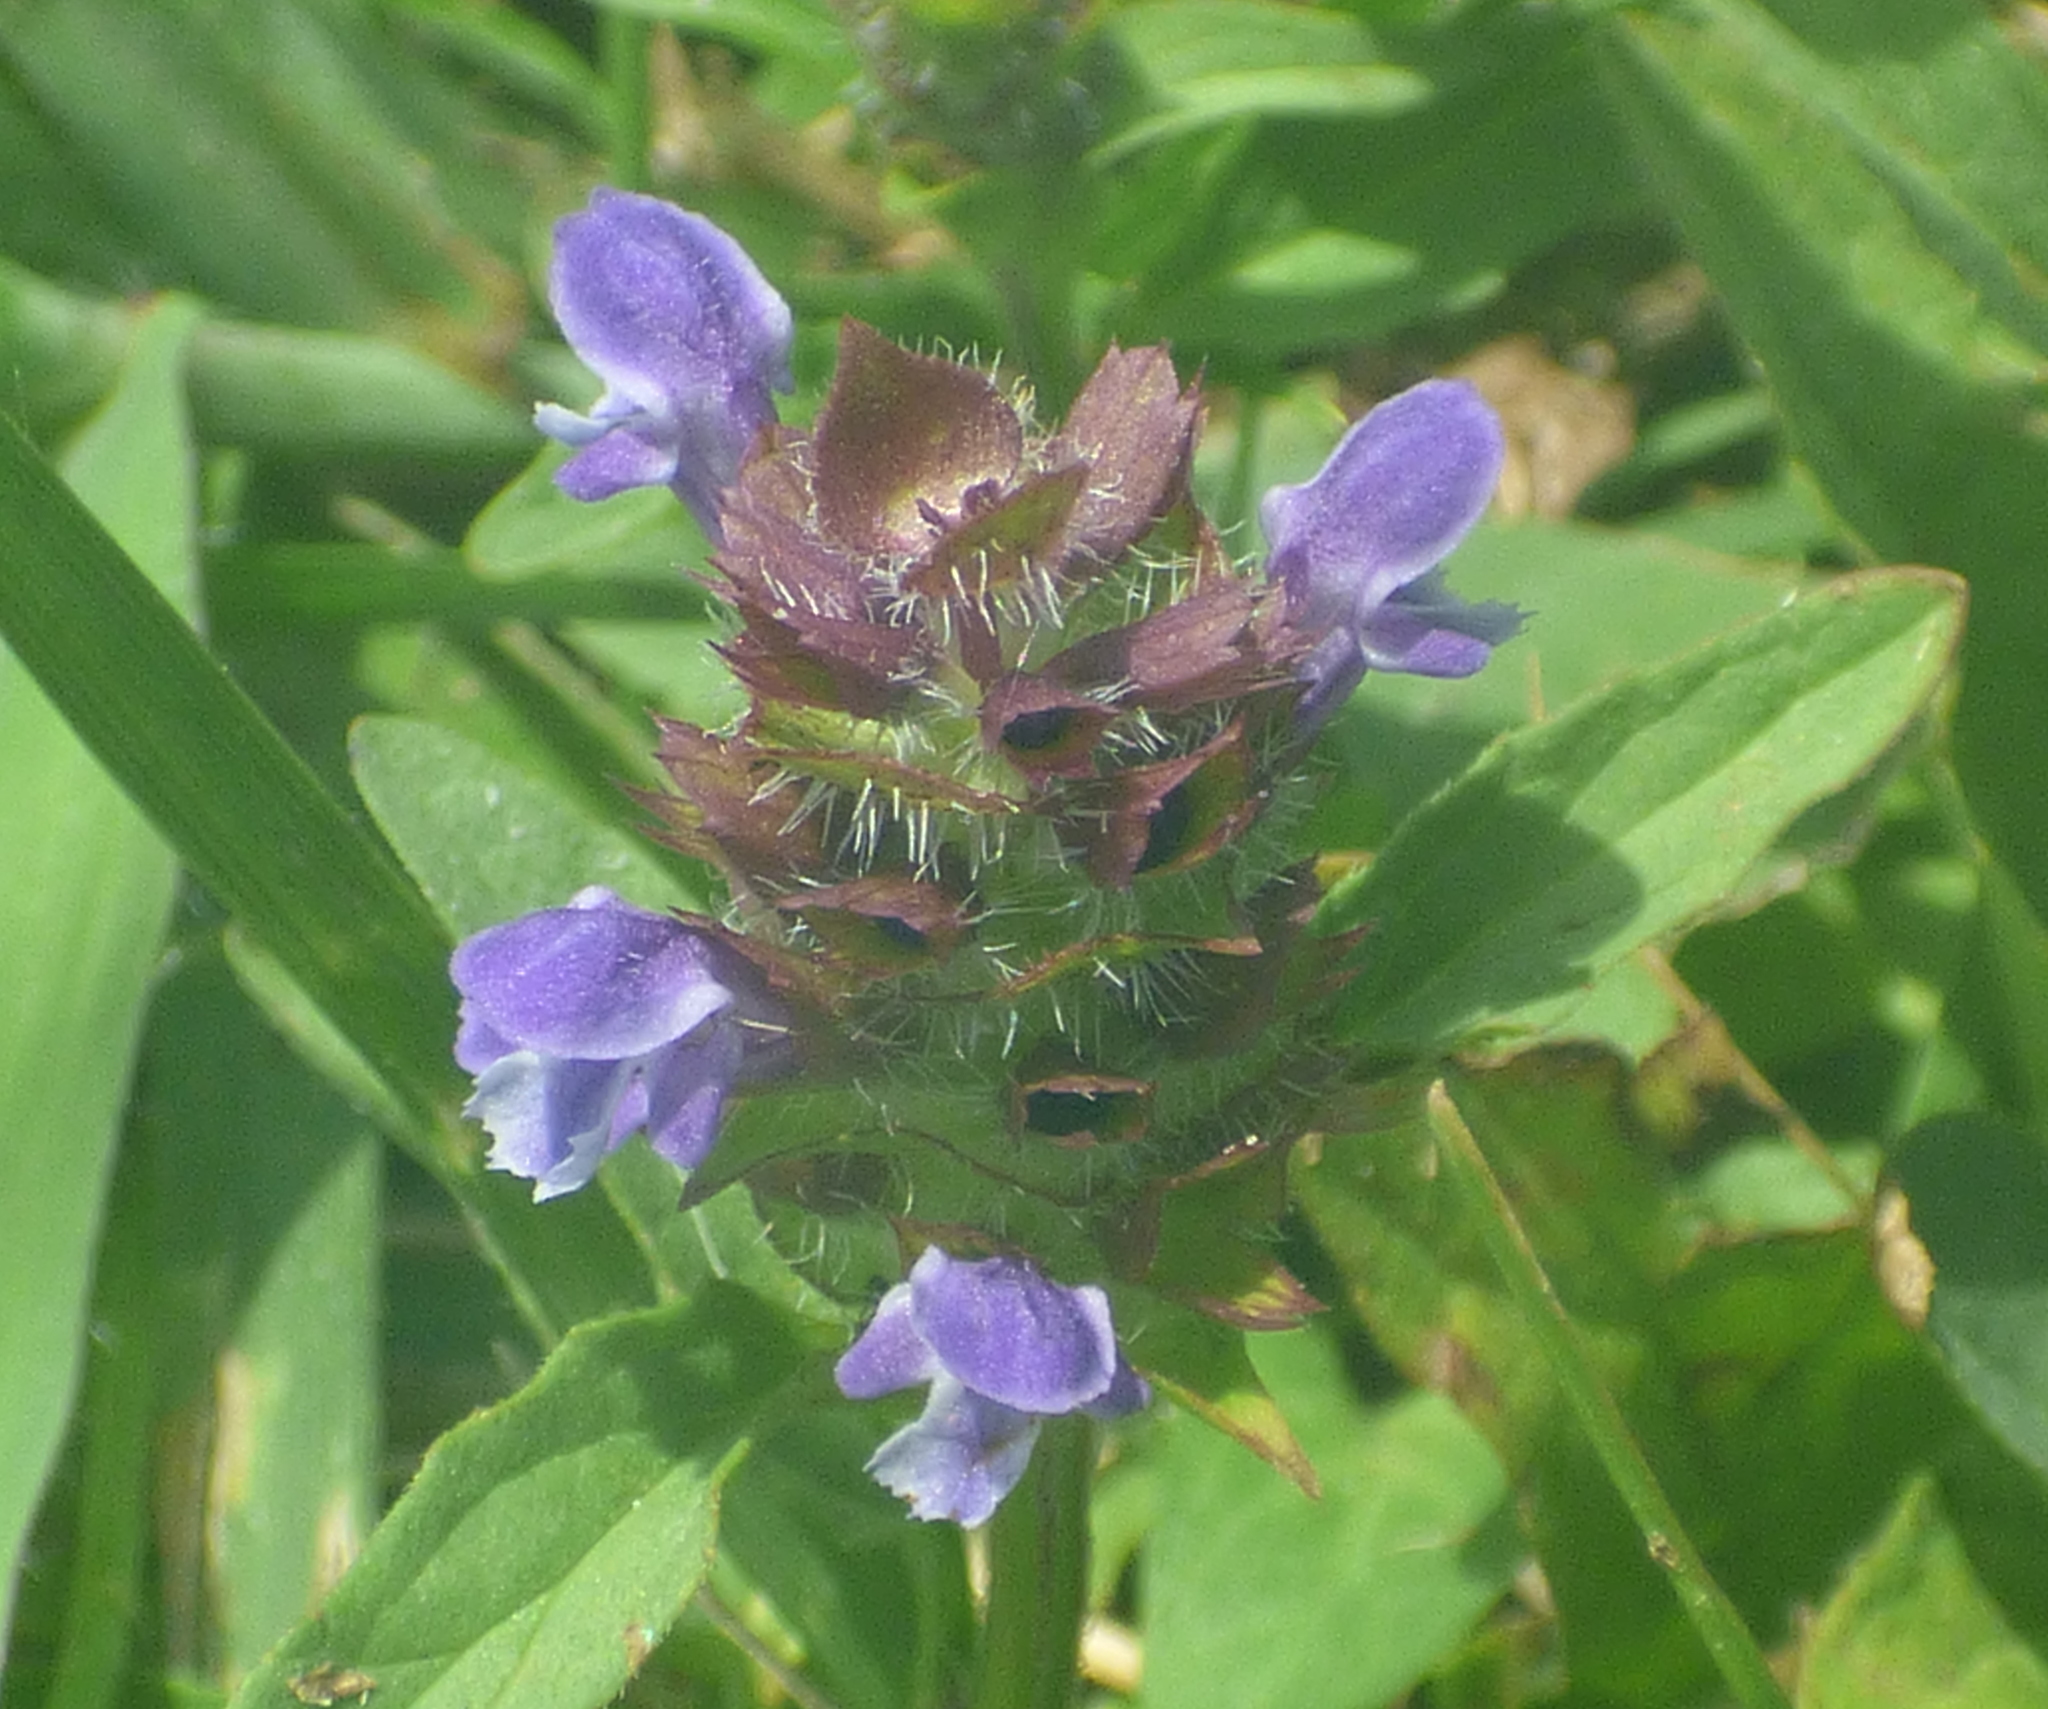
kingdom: Plantae
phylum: Tracheophyta
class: Magnoliopsida
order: Lamiales
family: Lamiaceae
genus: Prunella
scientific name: Prunella vulgaris
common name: Heal-all
